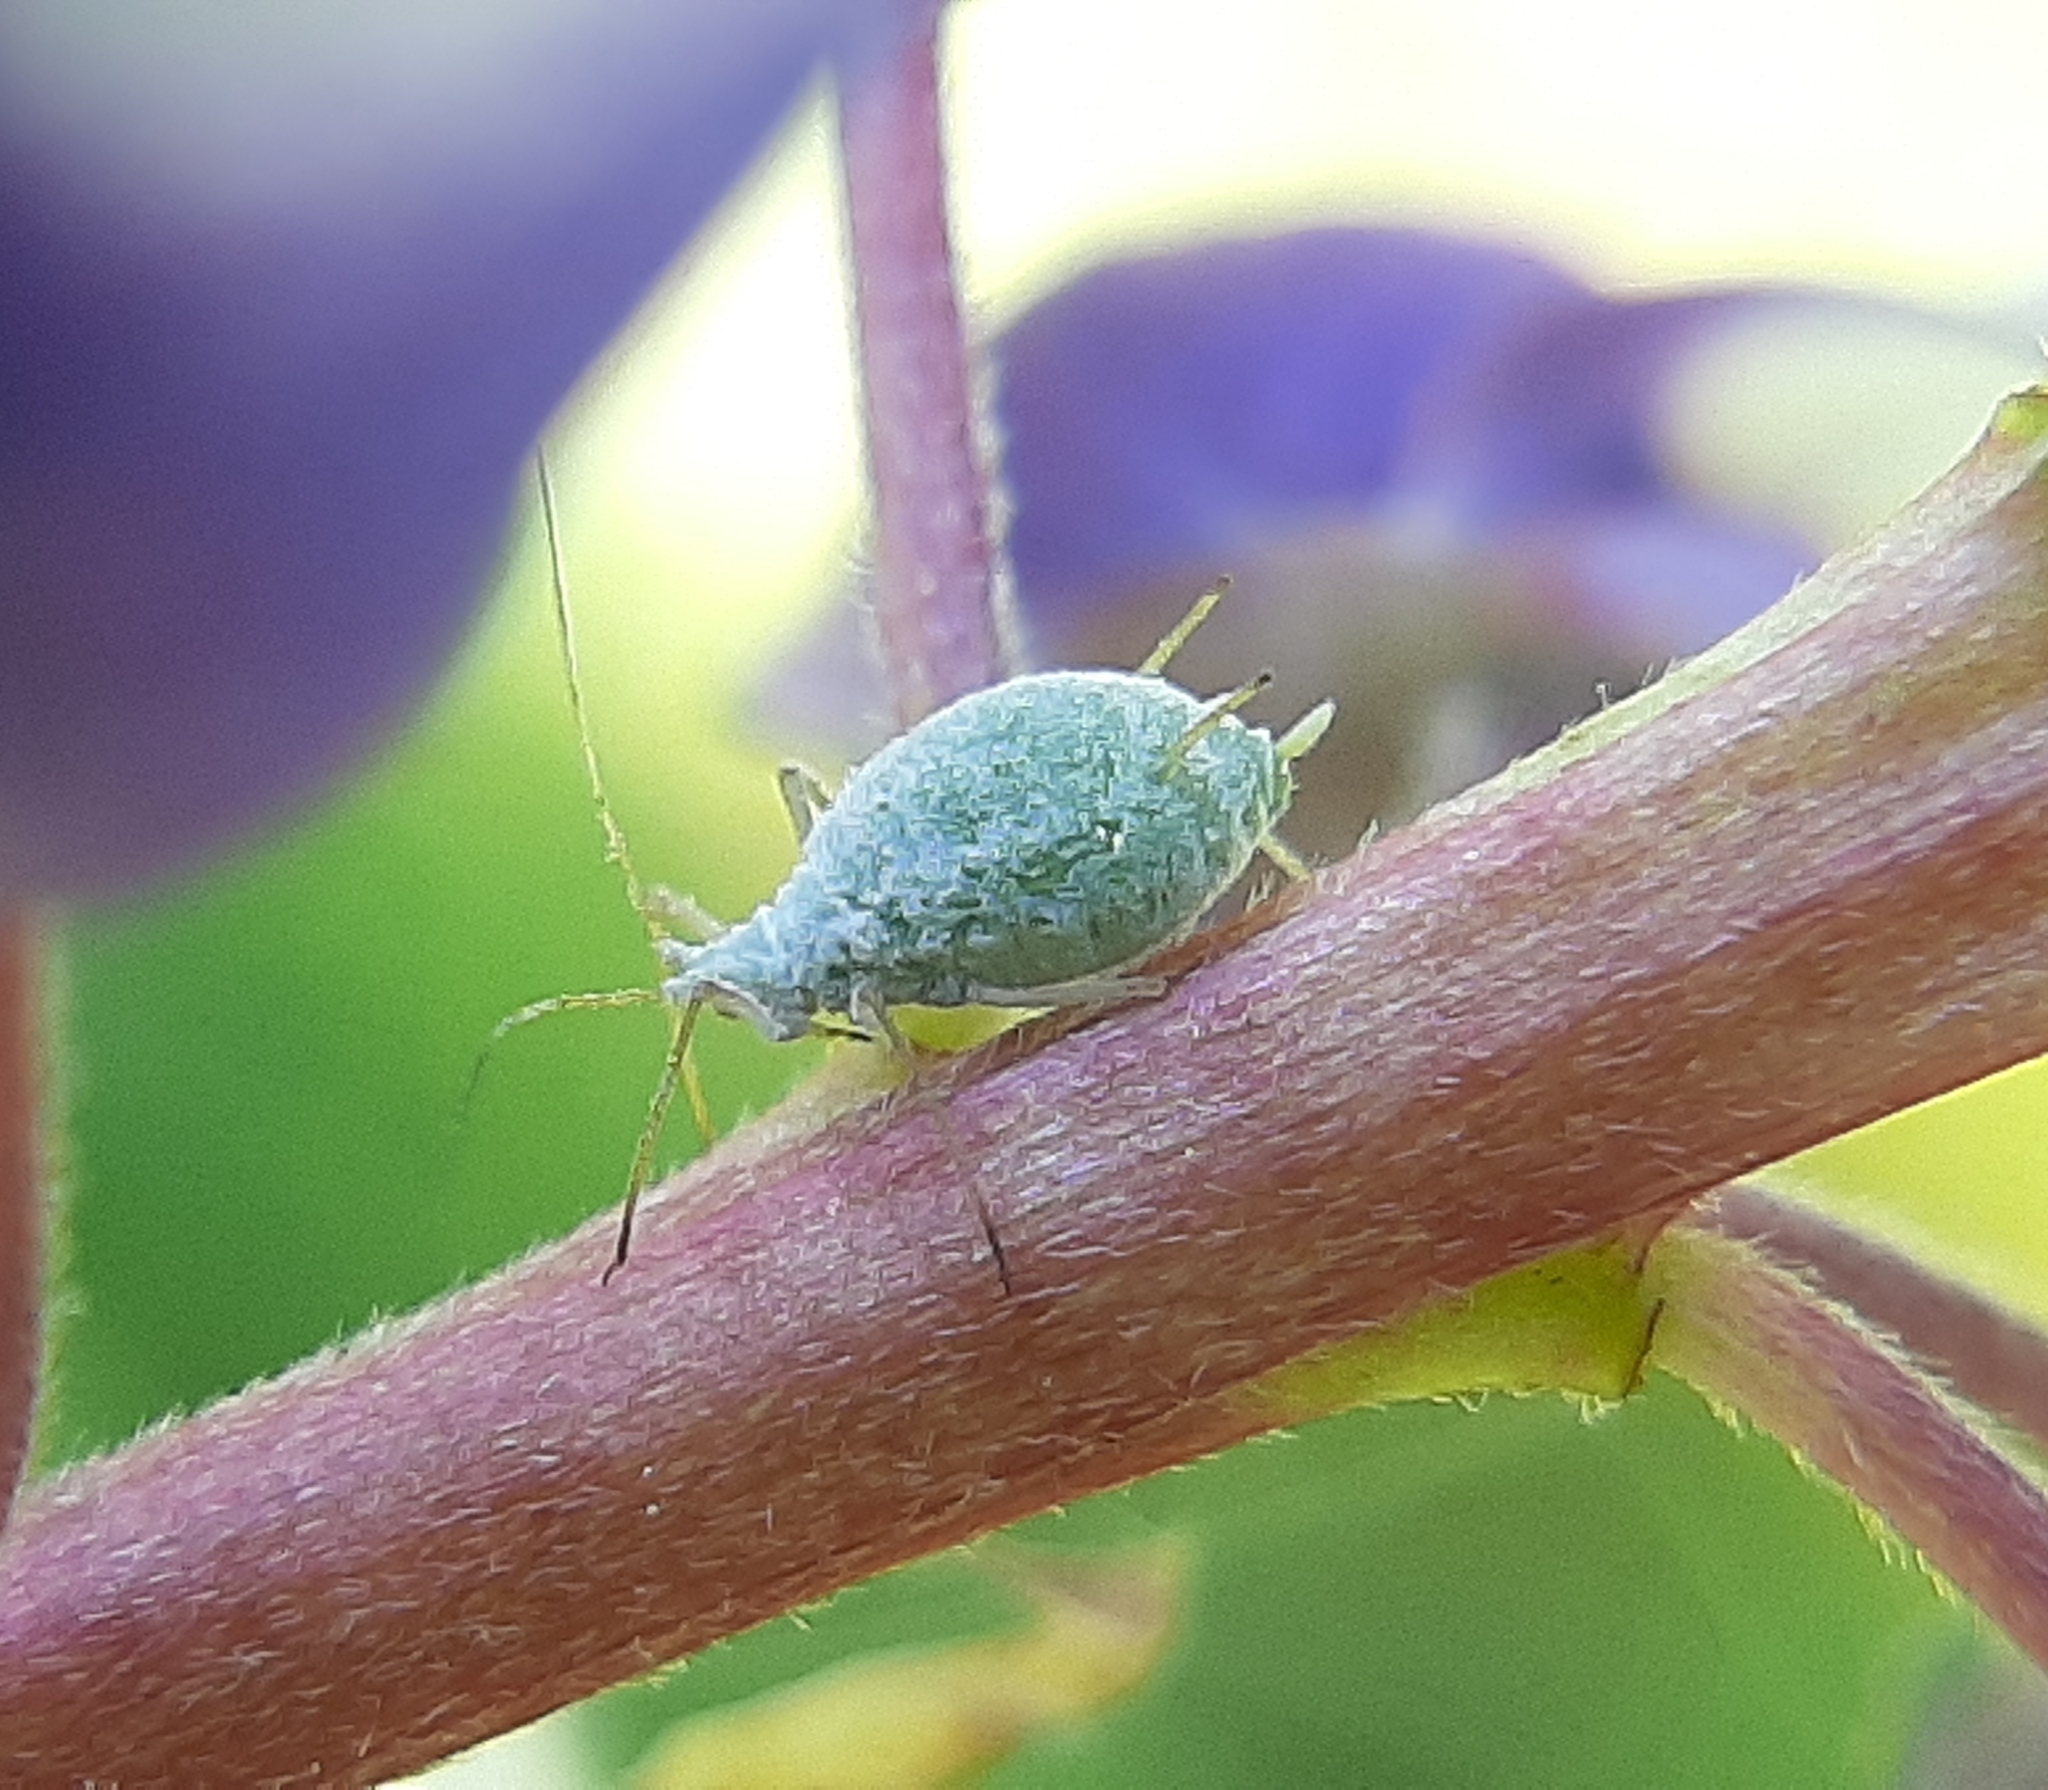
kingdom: Animalia
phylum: Arthropoda
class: Insecta
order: Hemiptera
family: Aphididae
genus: Macrosiphum
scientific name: Macrosiphum albifrons
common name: Lupine aphid
